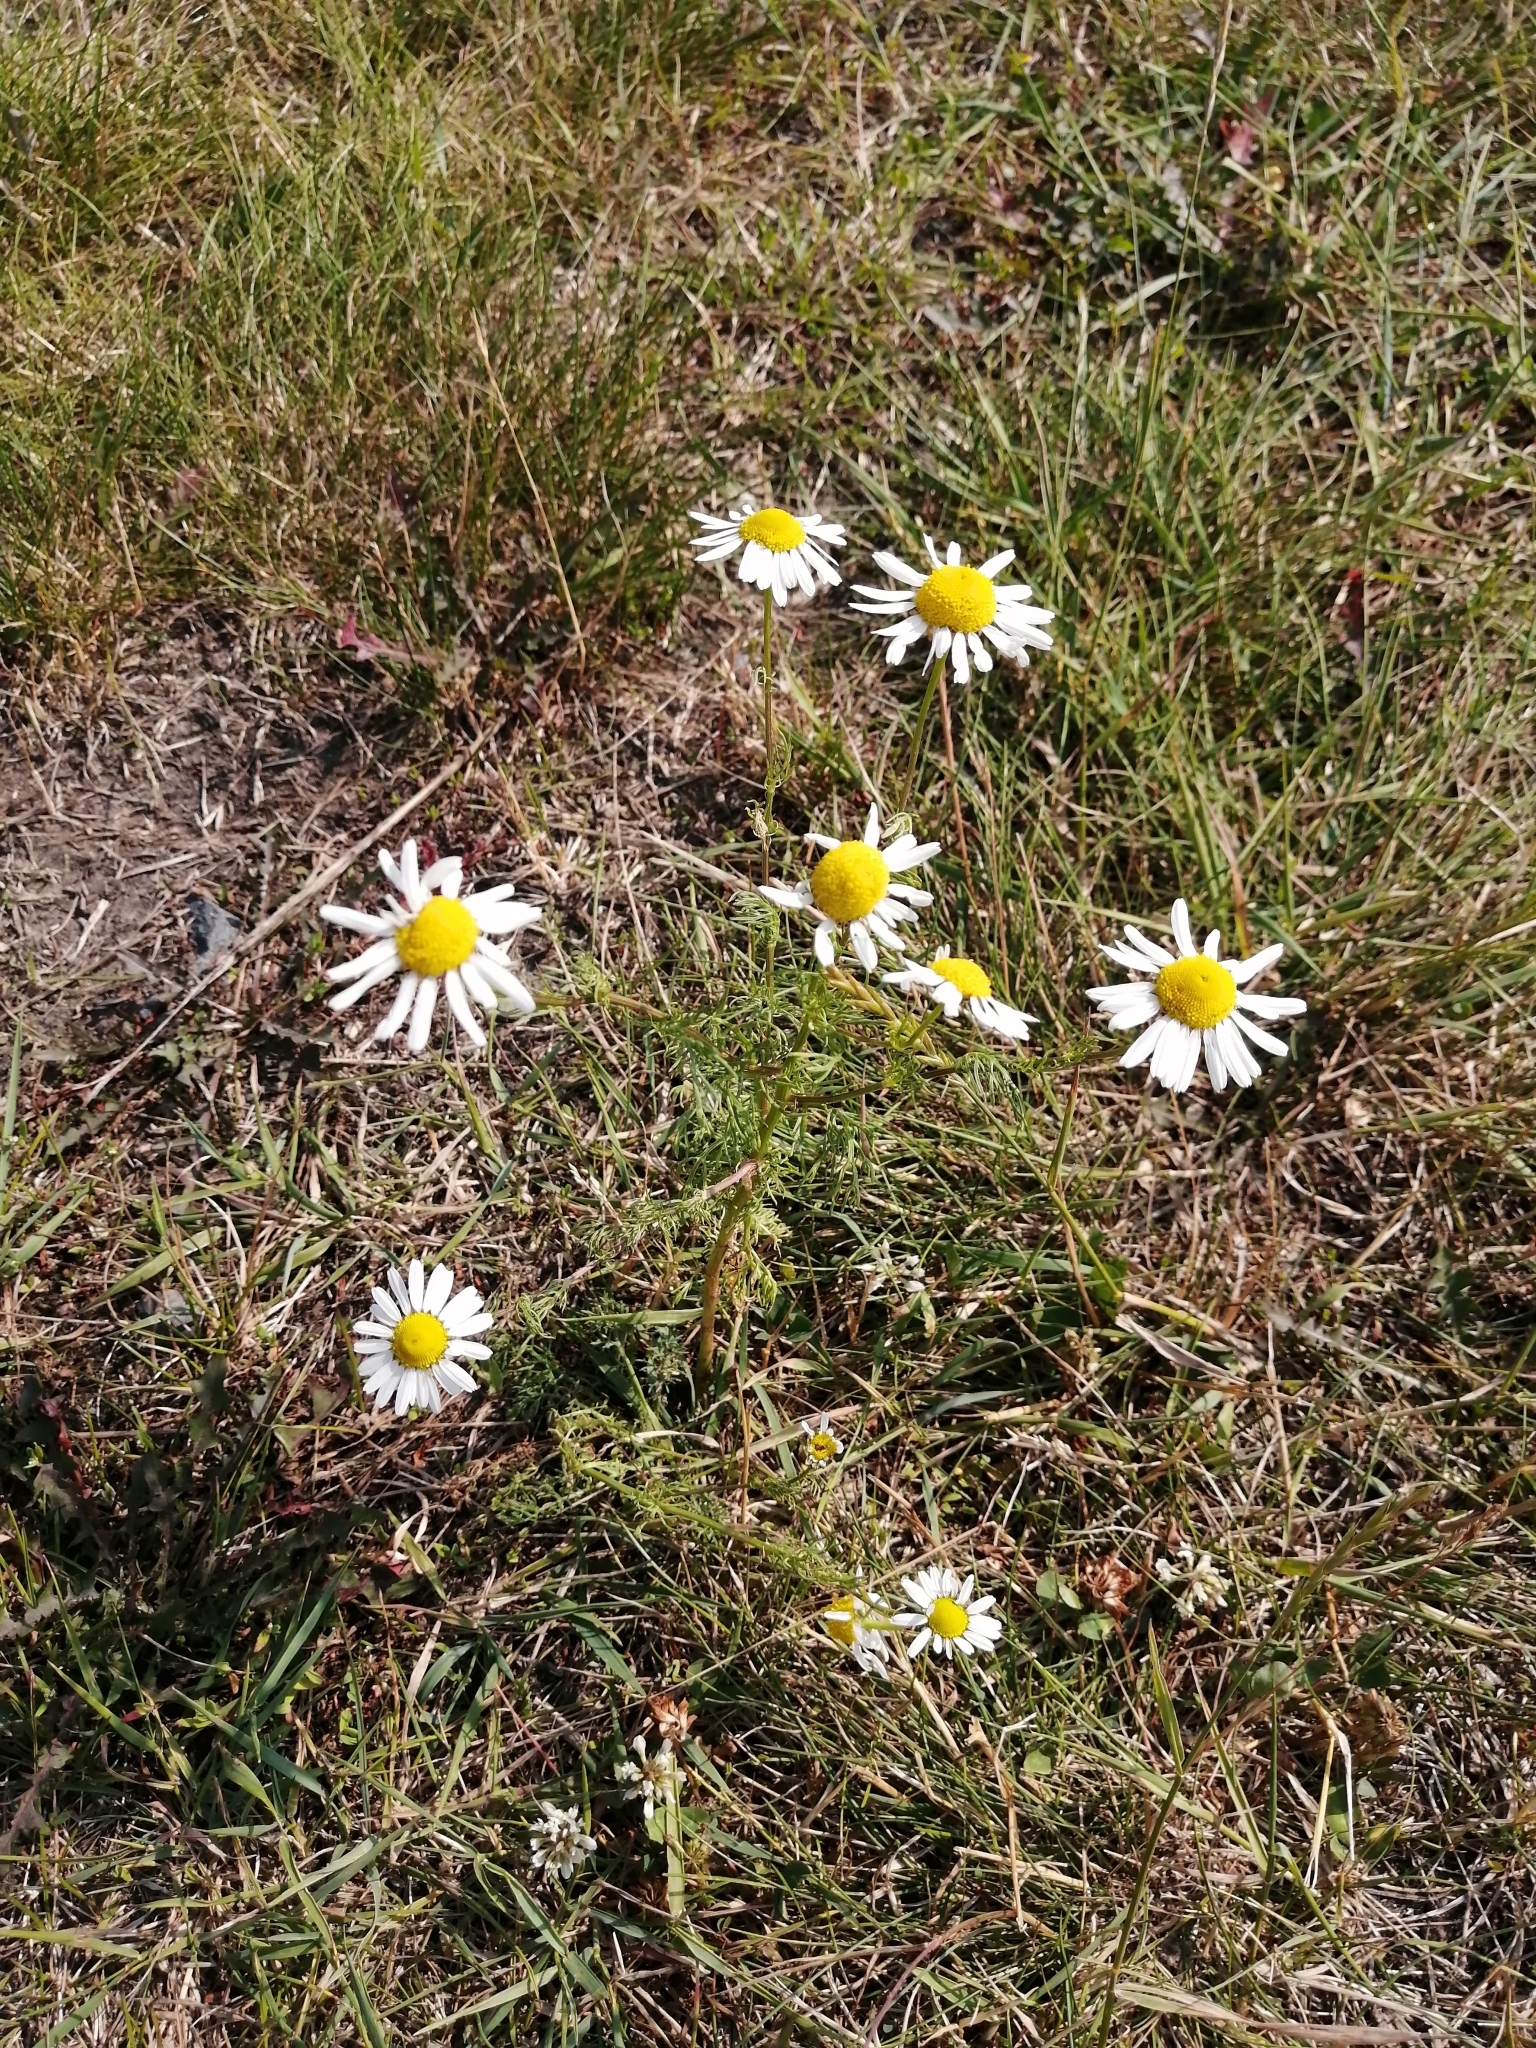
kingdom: Plantae
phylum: Tracheophyta
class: Magnoliopsida
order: Asterales
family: Asteraceae
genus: Tripleurospermum
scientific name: Tripleurospermum inodorum
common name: Scentless mayweed
